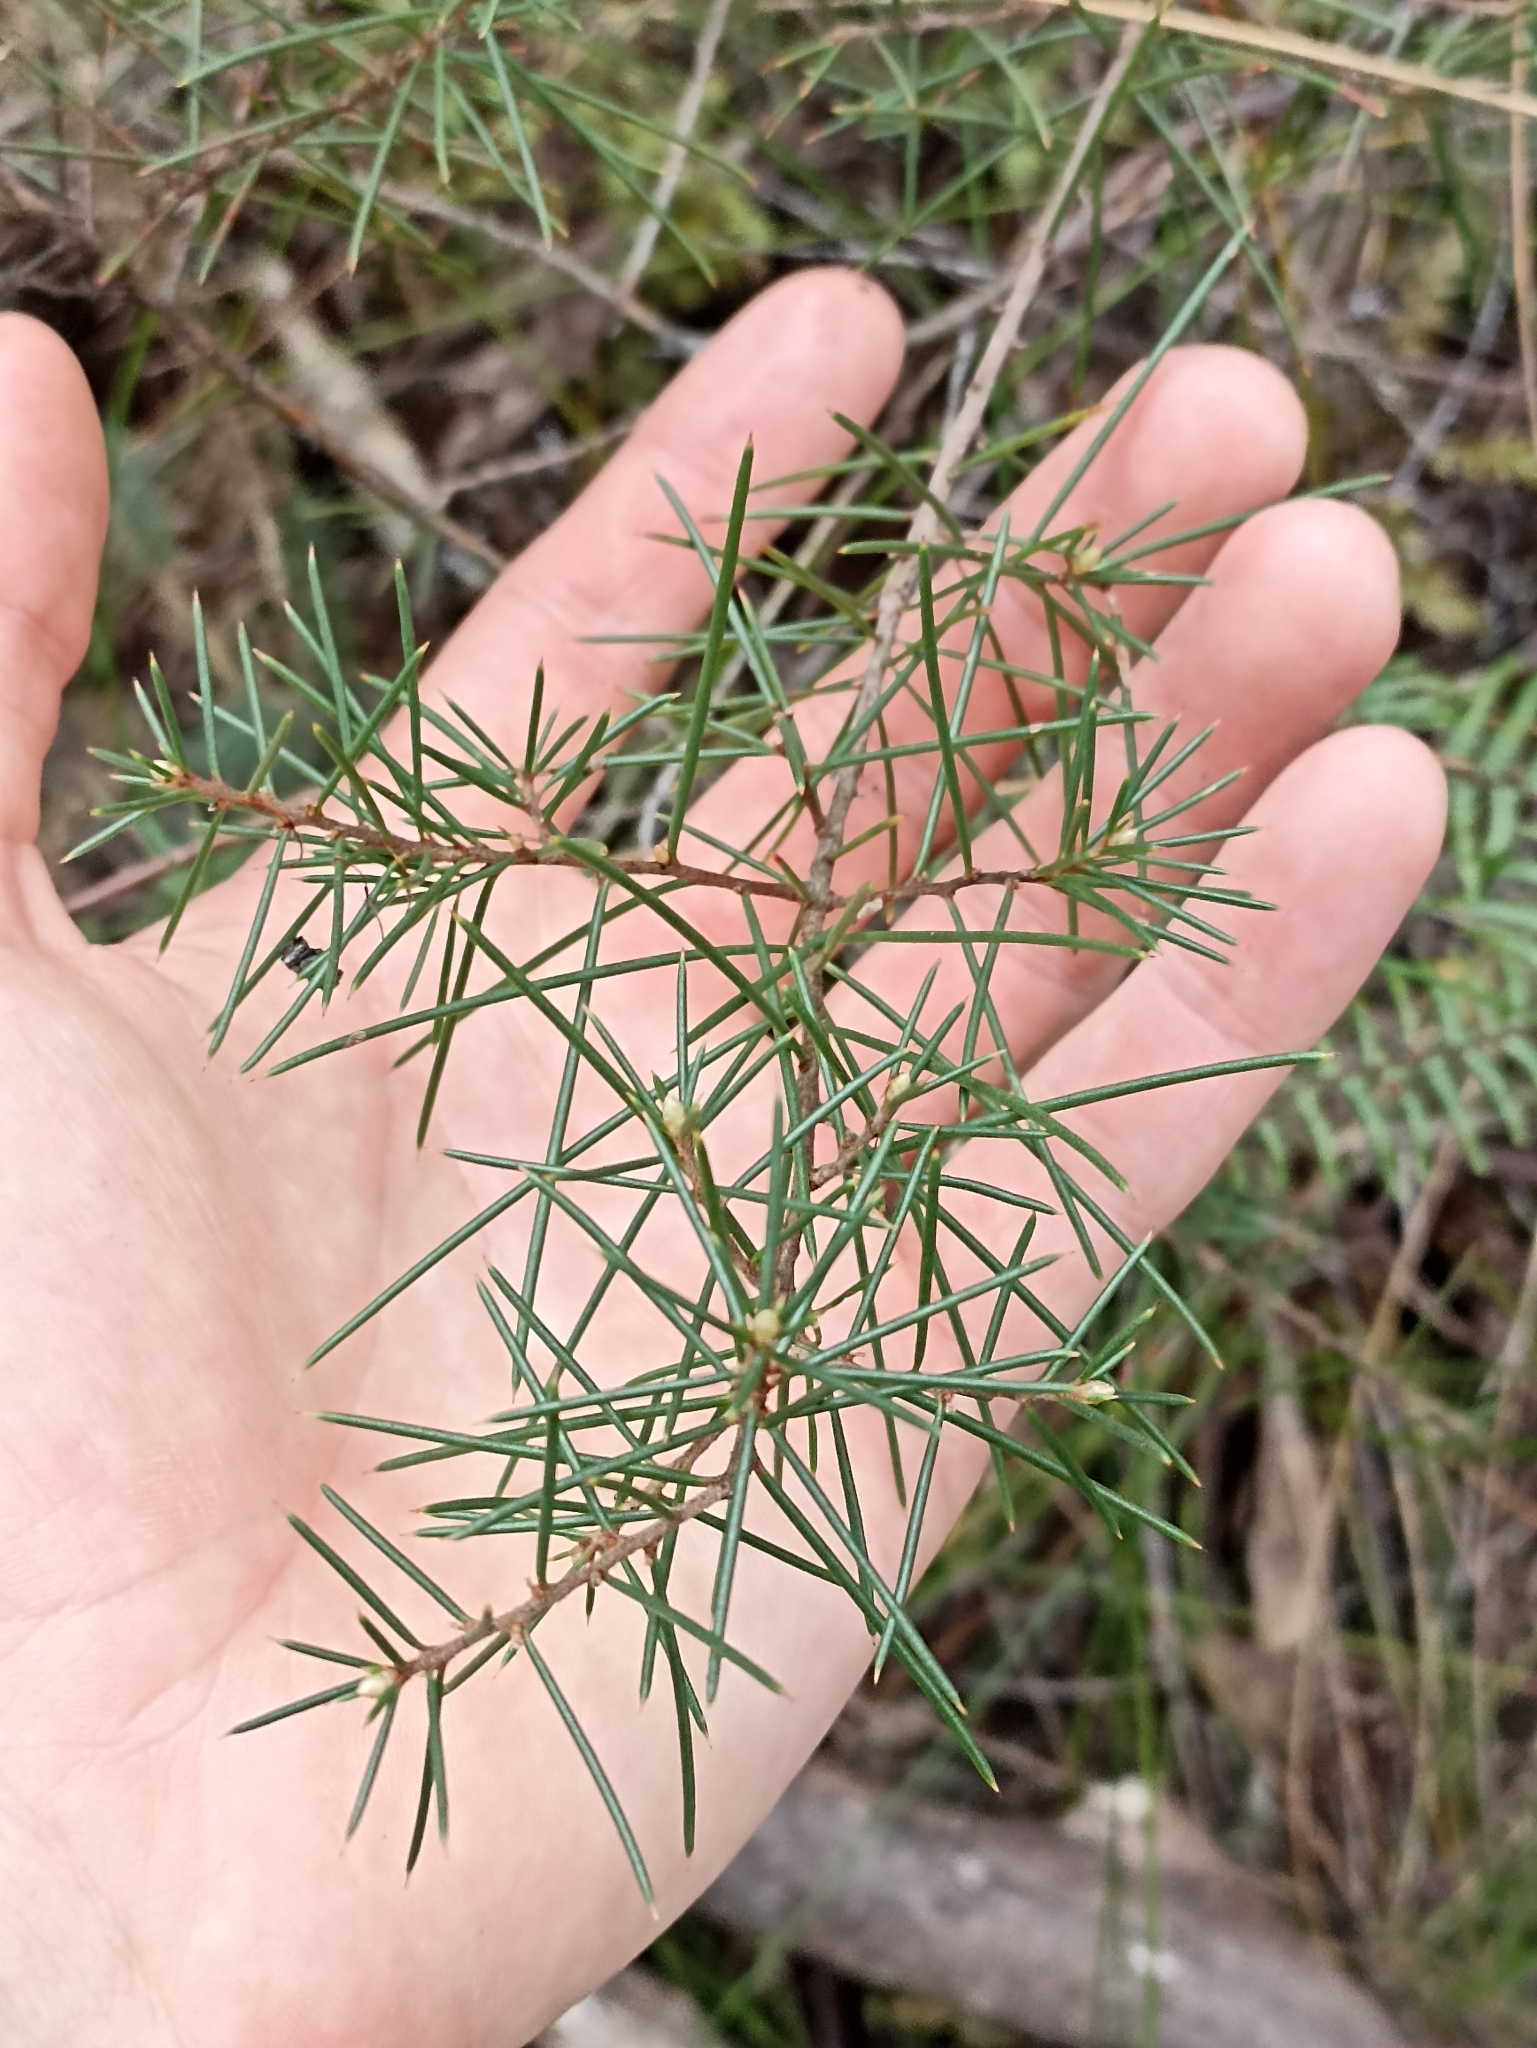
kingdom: Plantae
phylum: Tracheophyta
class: Magnoliopsida
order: Proteales
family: Proteaceae
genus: Hakea
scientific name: Hakea sericea
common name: Needle bush
